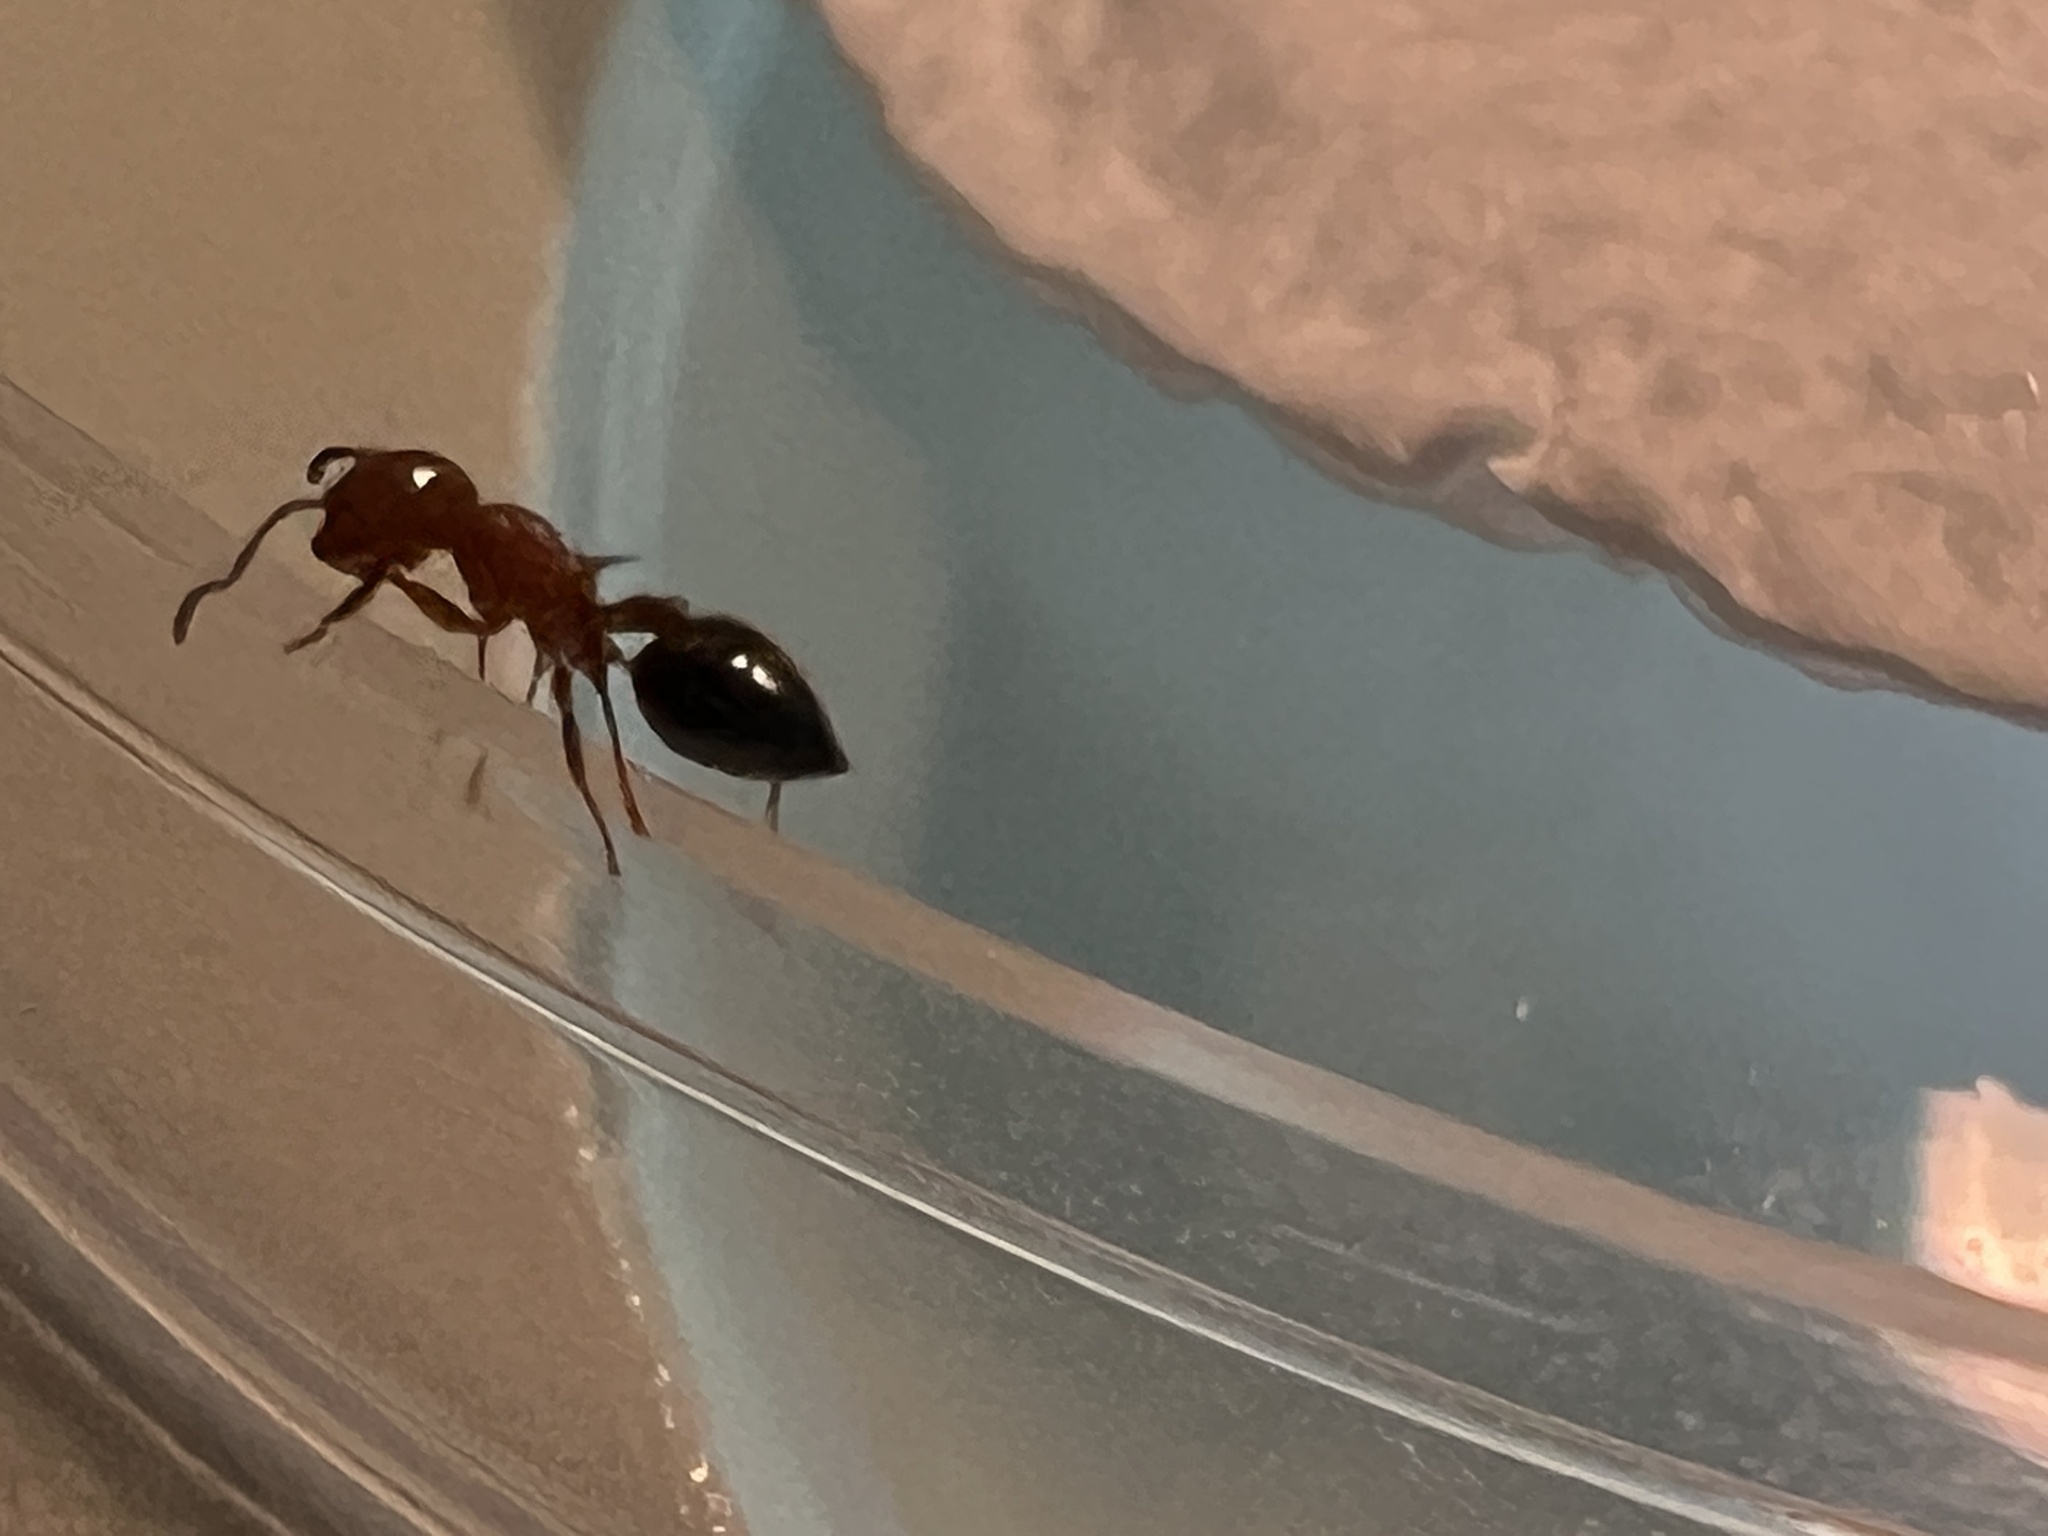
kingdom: Animalia
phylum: Arthropoda
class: Insecta
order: Hymenoptera
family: Formicidae
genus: Crematogaster
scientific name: Crematogaster laeviuscula
